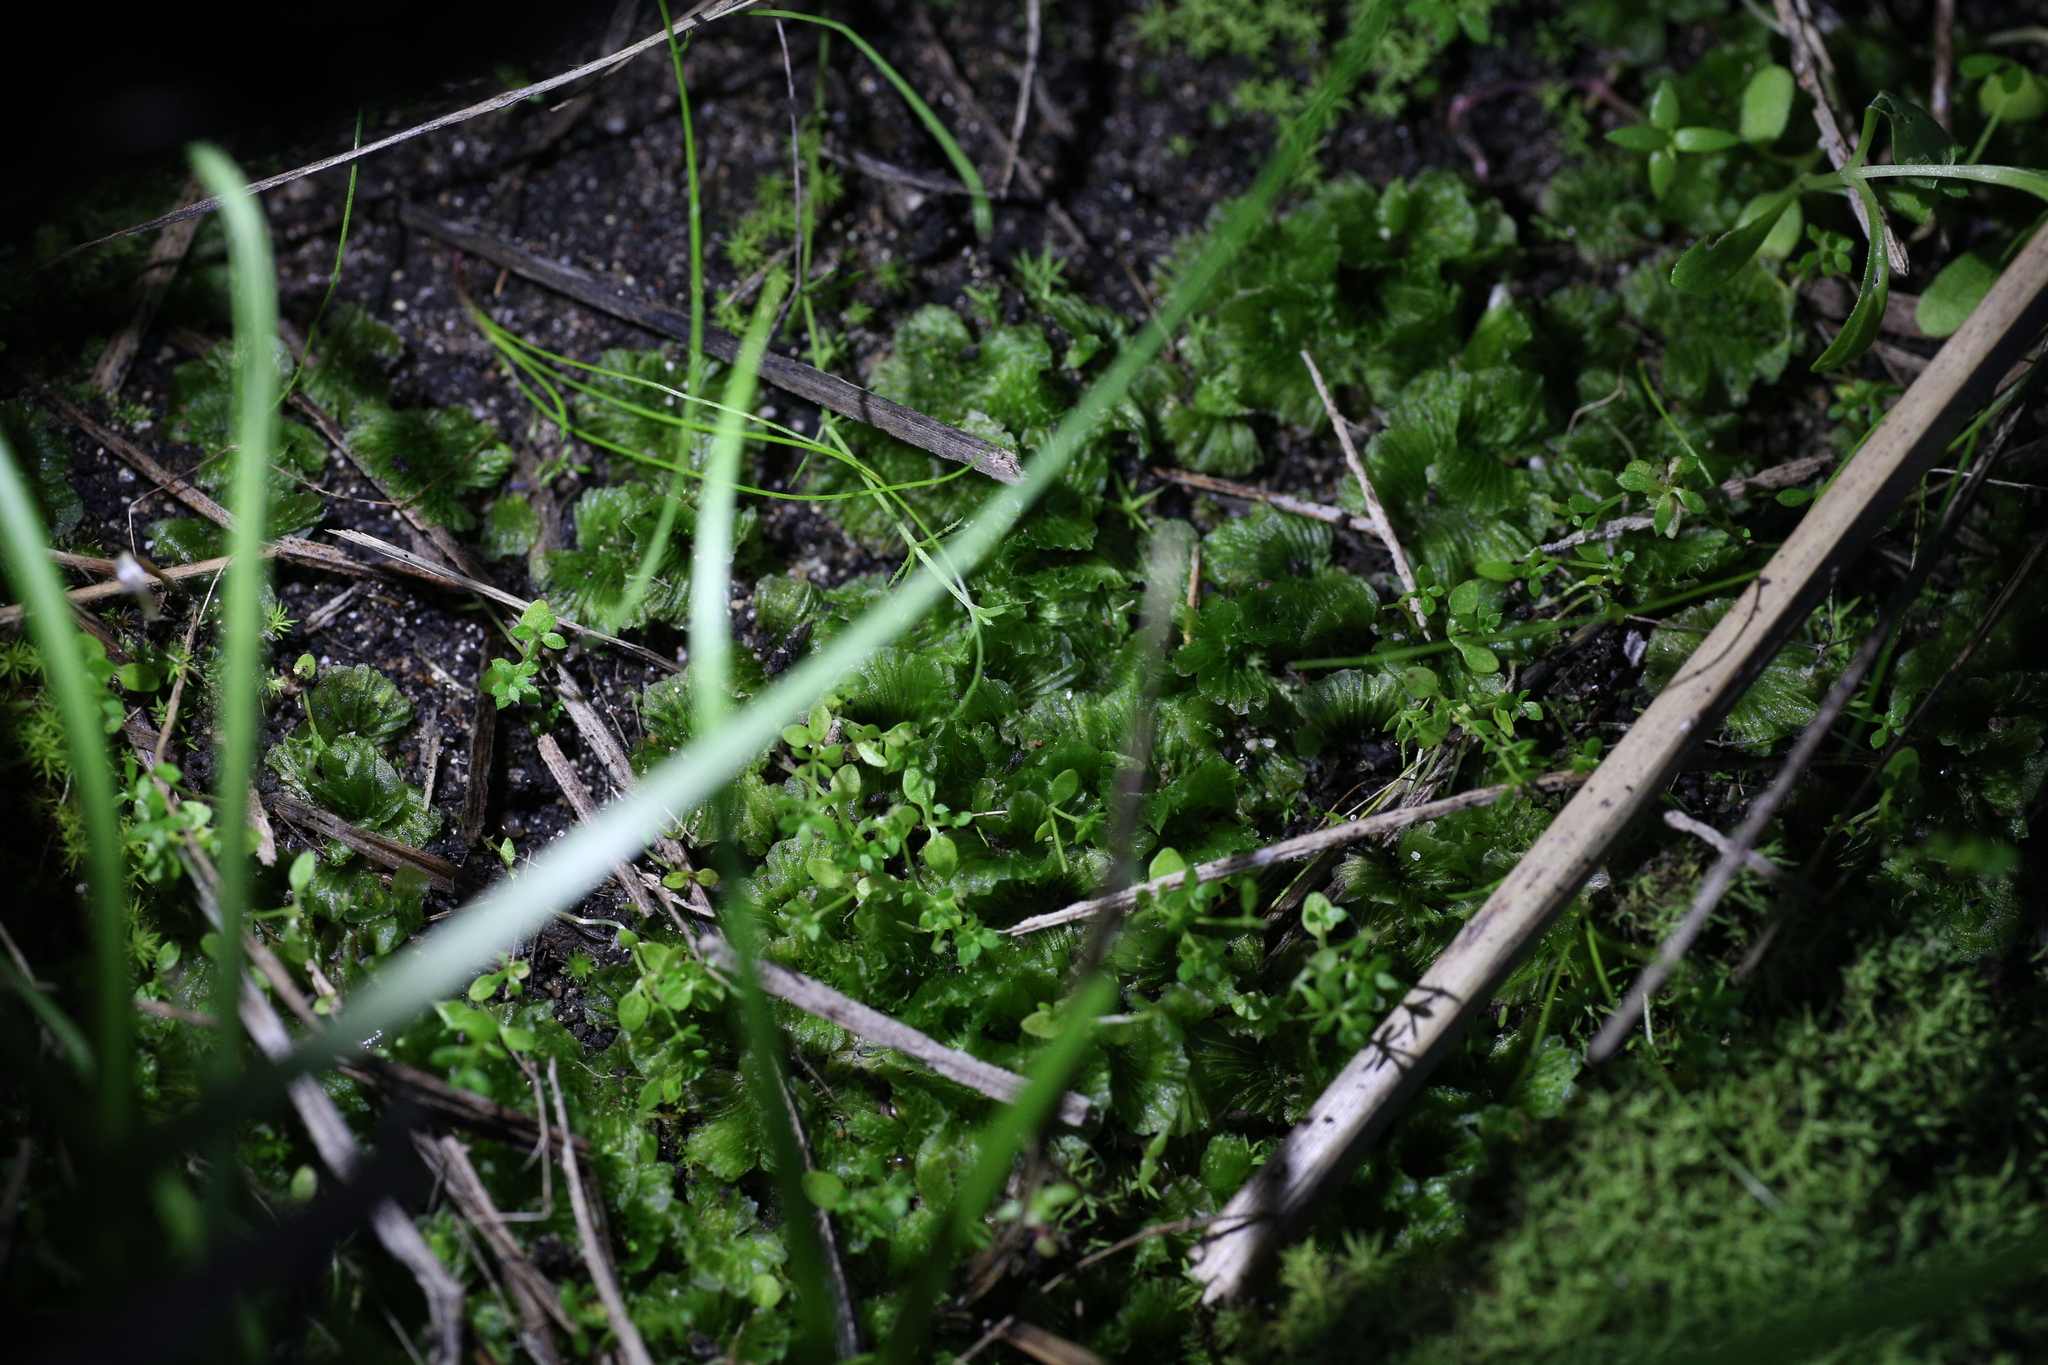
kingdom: Plantae
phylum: Marchantiophyta
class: Jungermanniopsida
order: Fossombroniales
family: Petalophyllaceae
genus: Petalophyllum
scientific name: Petalophyllum preissii
